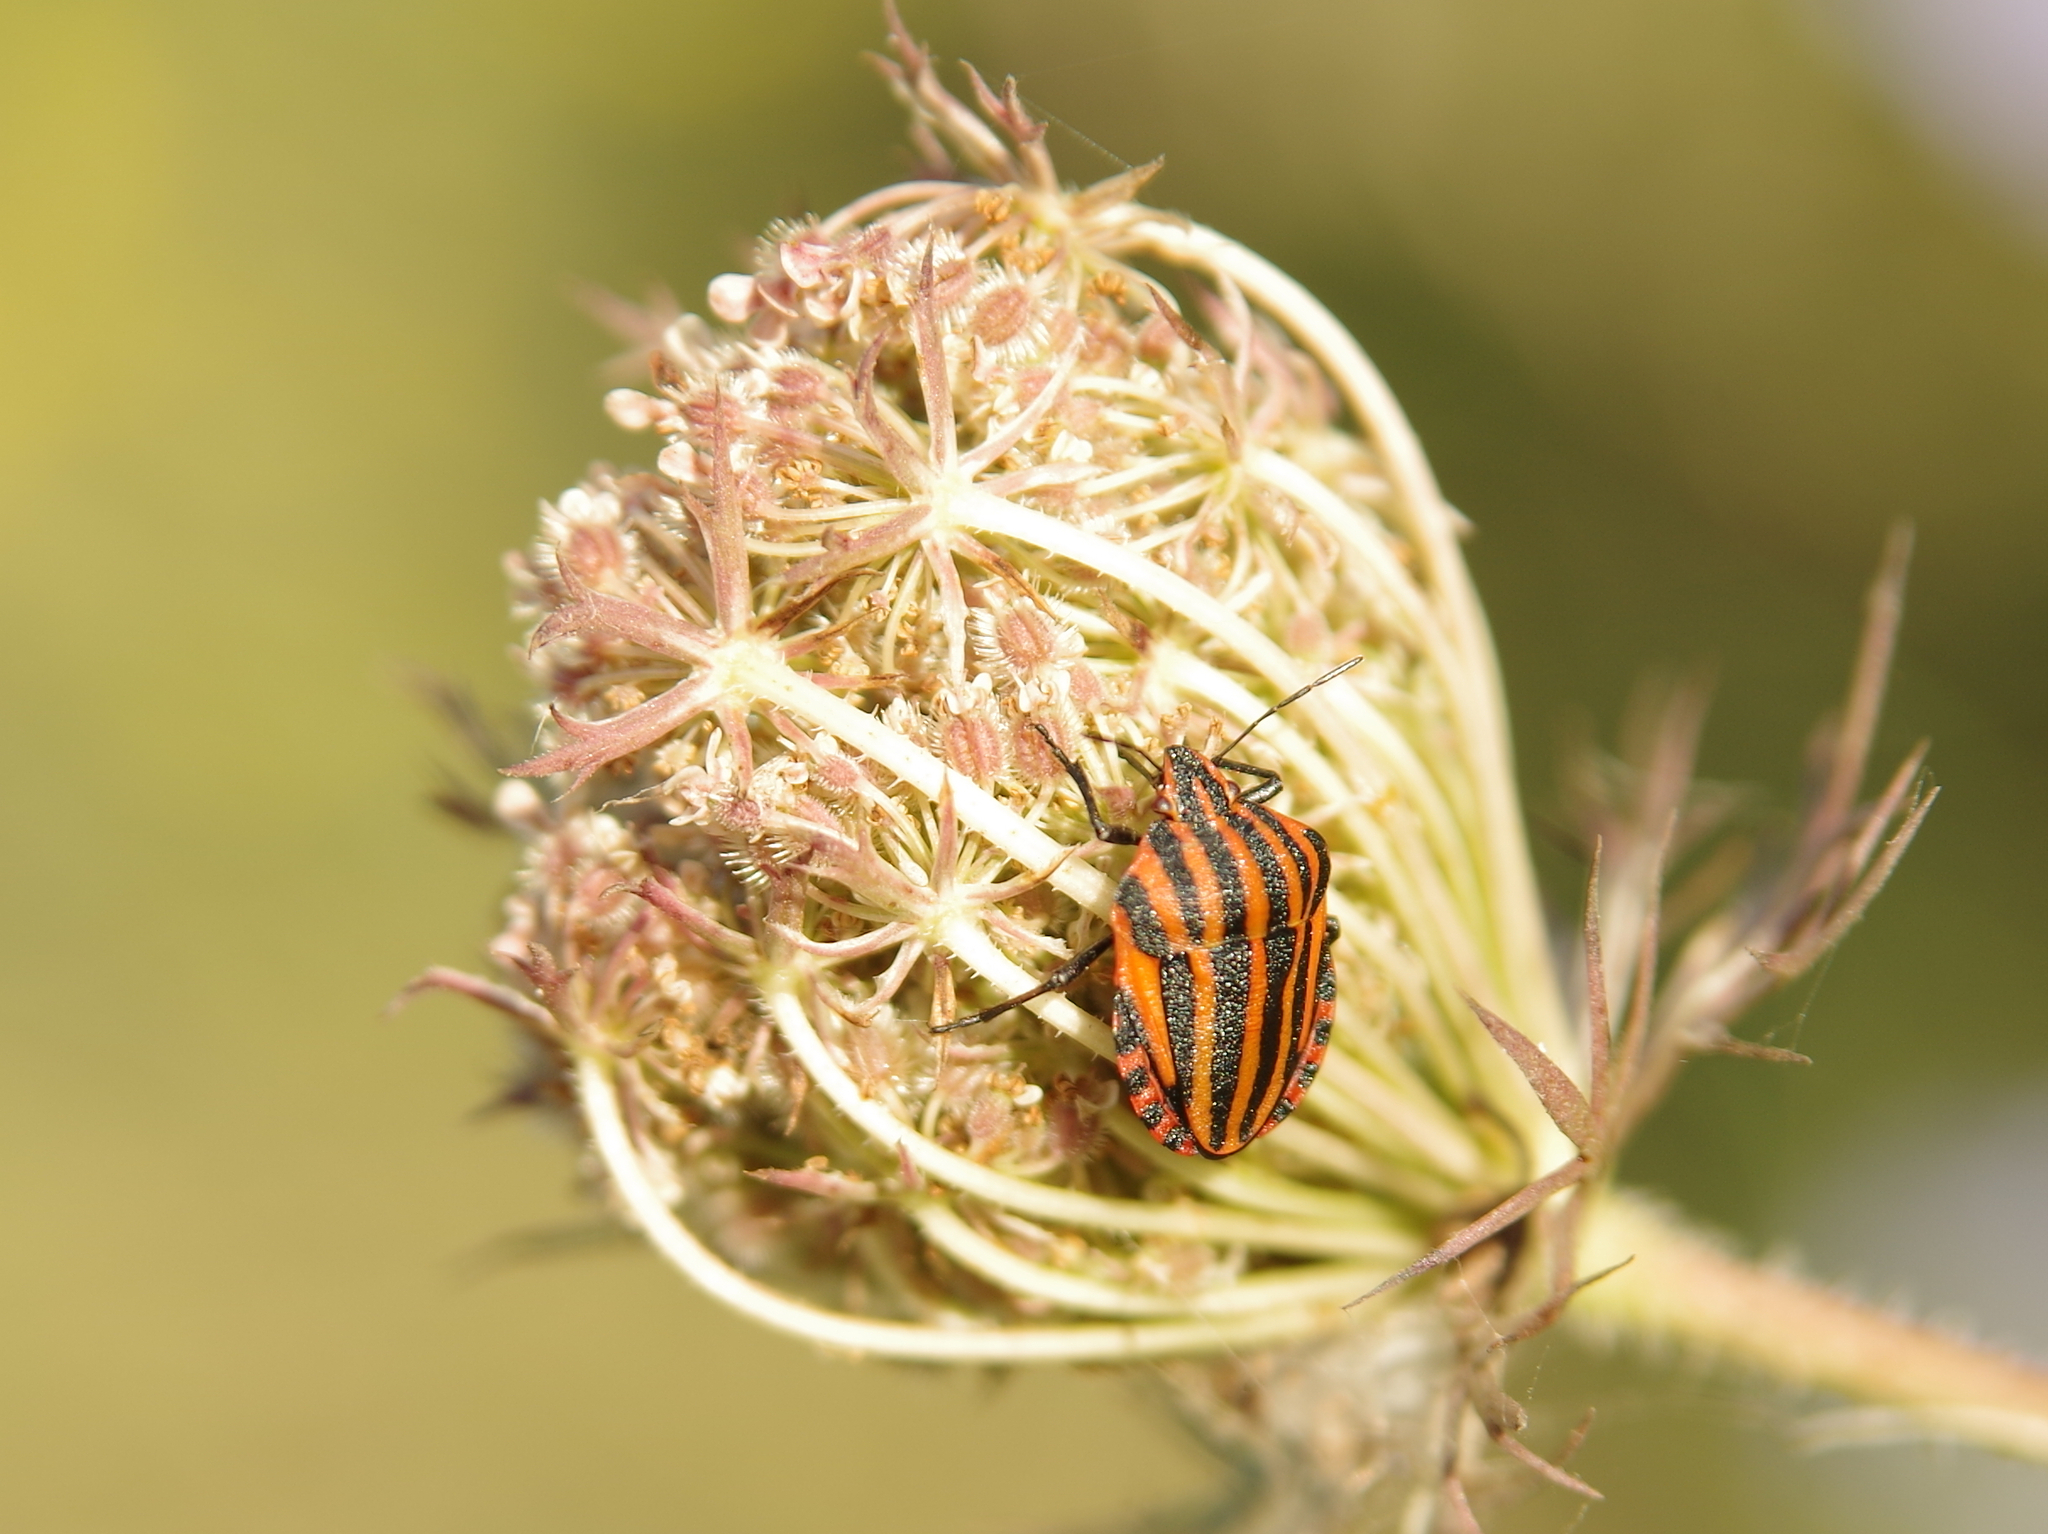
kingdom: Animalia
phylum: Arthropoda
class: Insecta
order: Hemiptera
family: Pentatomidae
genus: Graphosoma
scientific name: Graphosoma italicum
